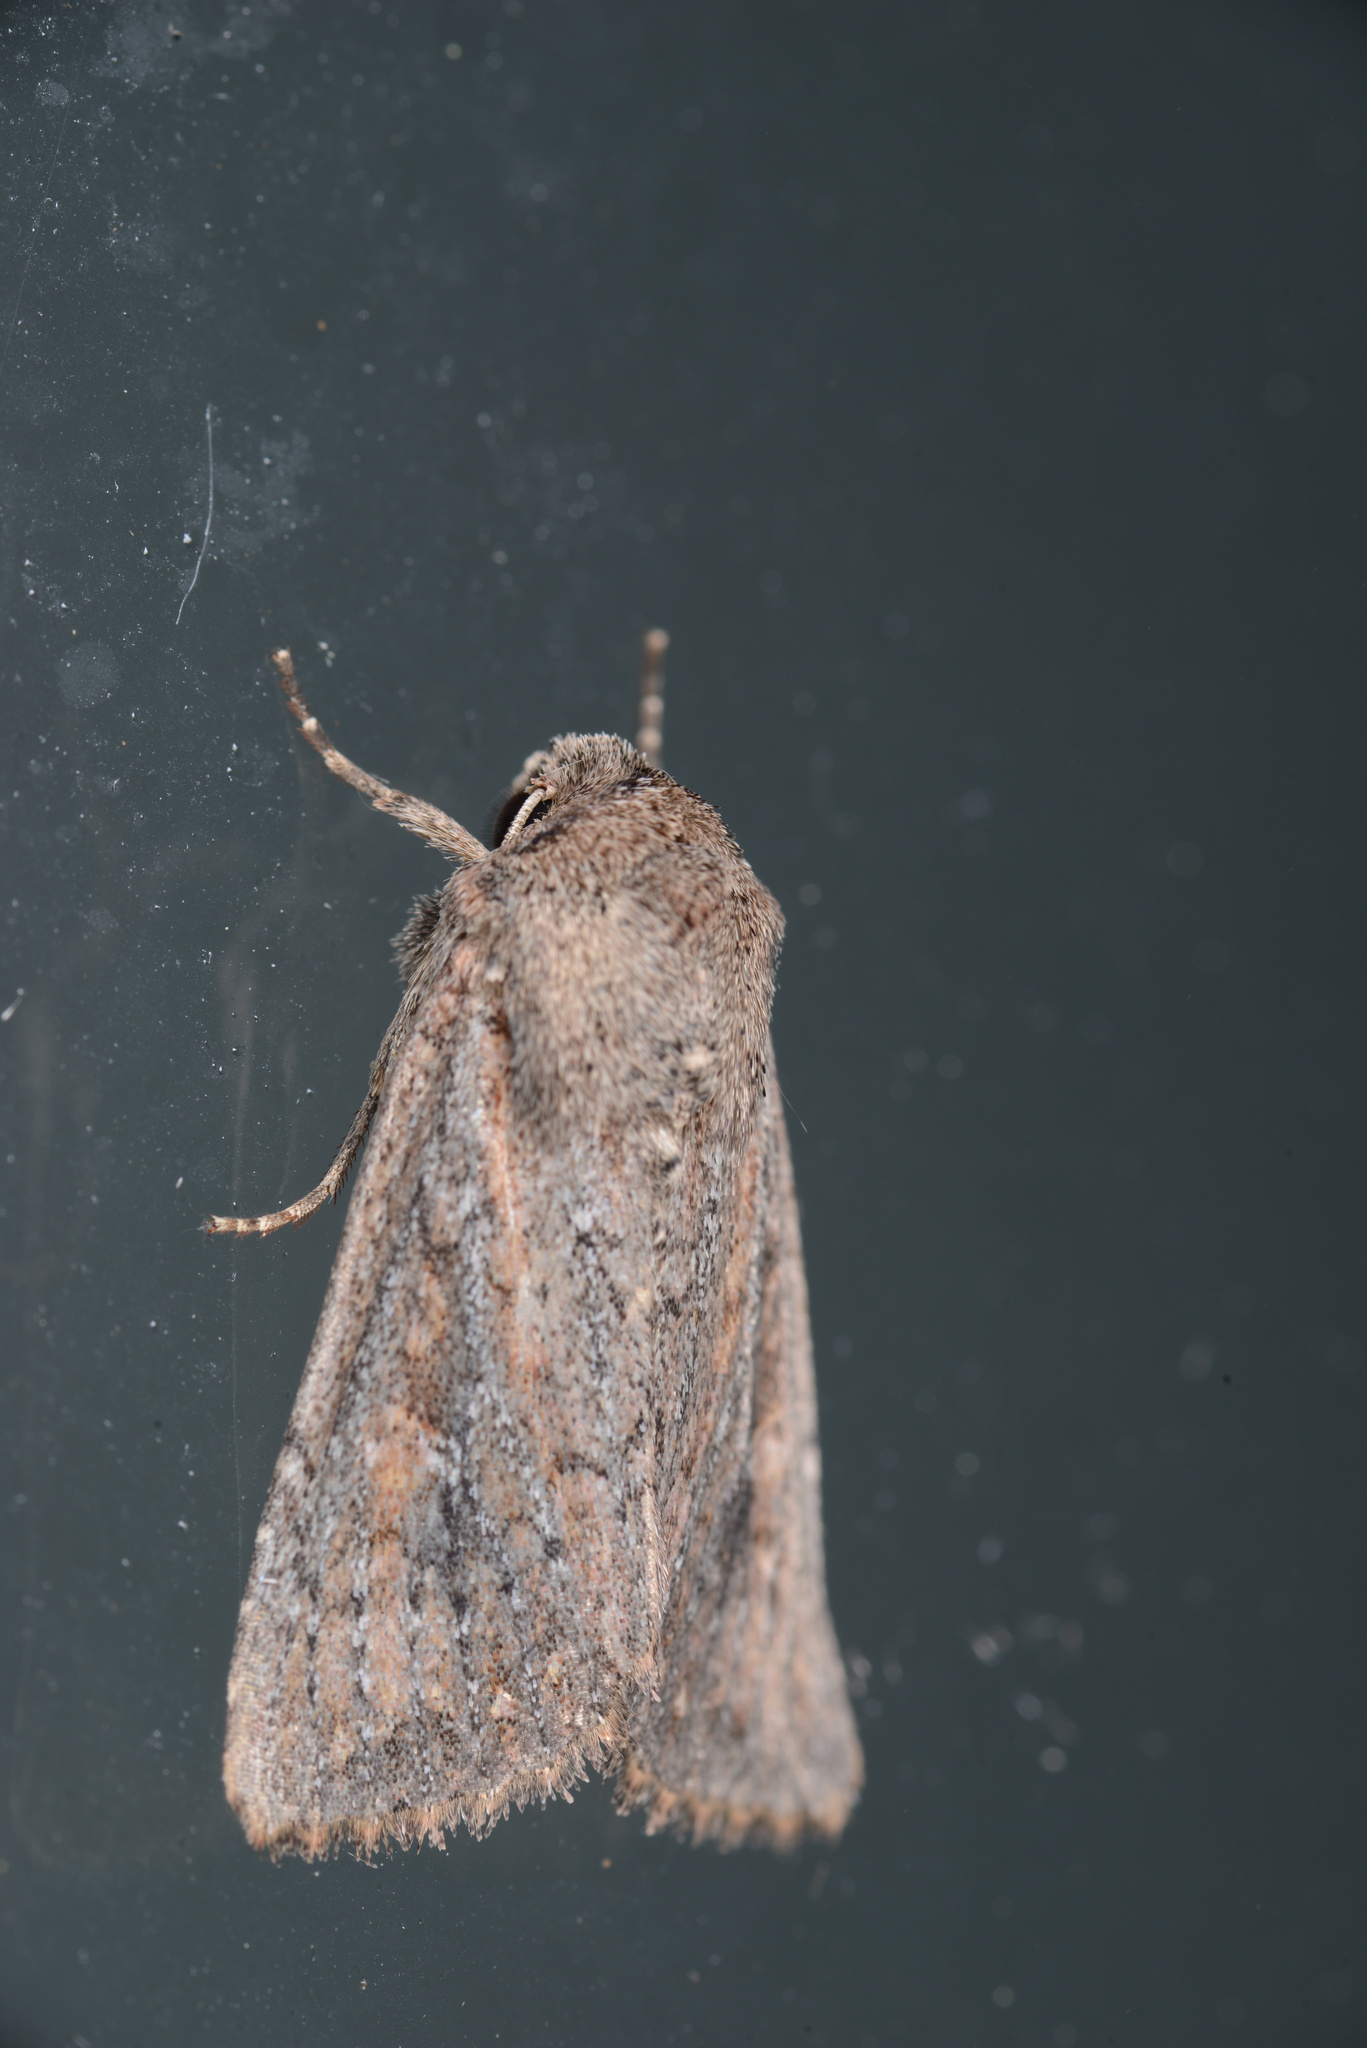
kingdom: Animalia
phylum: Arthropoda
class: Insecta
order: Lepidoptera
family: Noctuidae
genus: Ichneutica
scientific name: Ichneutica
